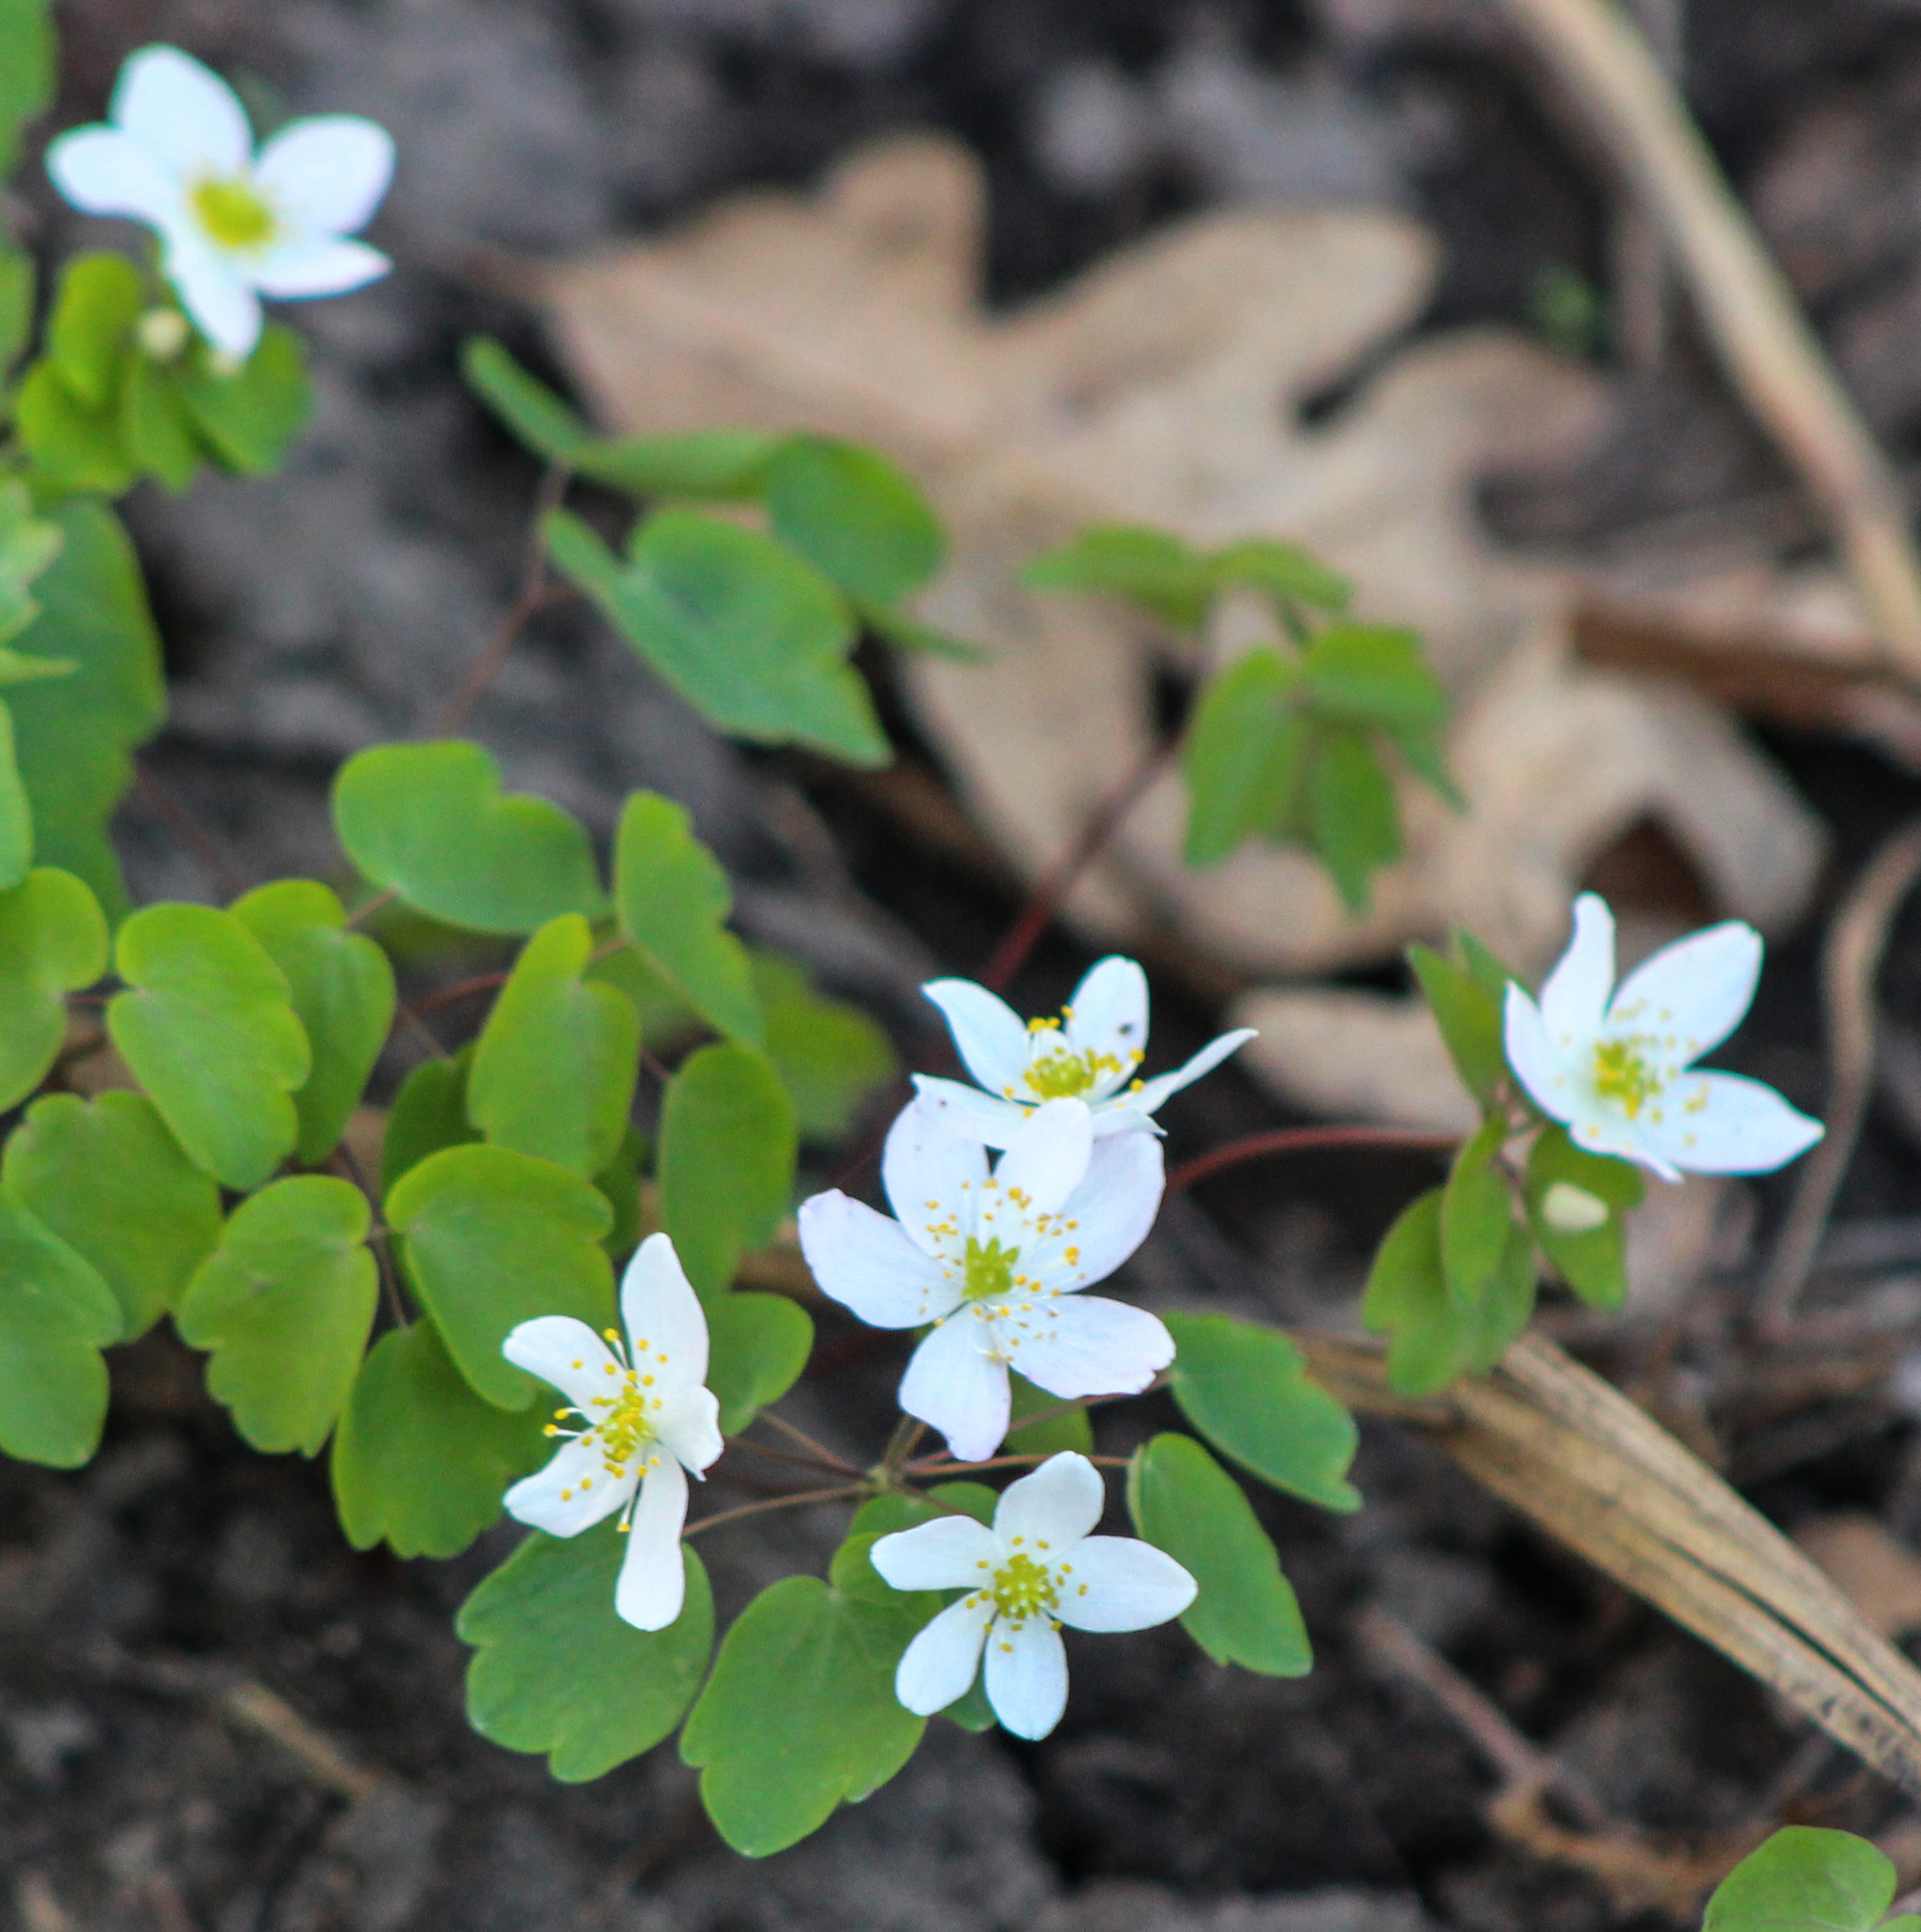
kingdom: Plantae
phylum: Tracheophyta
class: Magnoliopsida
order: Ranunculales
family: Ranunculaceae
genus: Thalictrum
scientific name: Thalictrum thalictroides
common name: Rue-anemone
